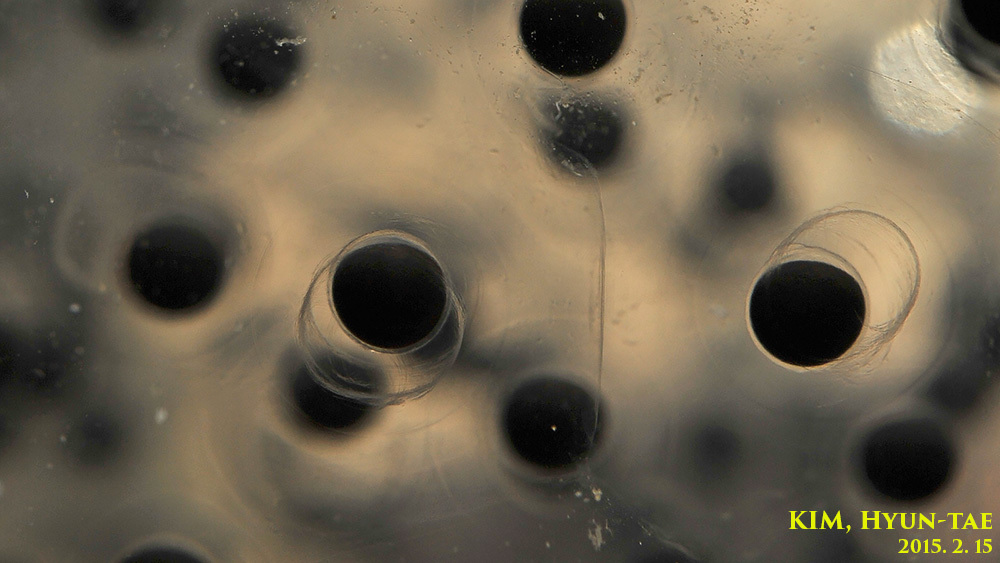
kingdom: Animalia
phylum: Chordata
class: Amphibia
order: Anura
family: Ranidae
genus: Rana
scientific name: Rana uenoi
